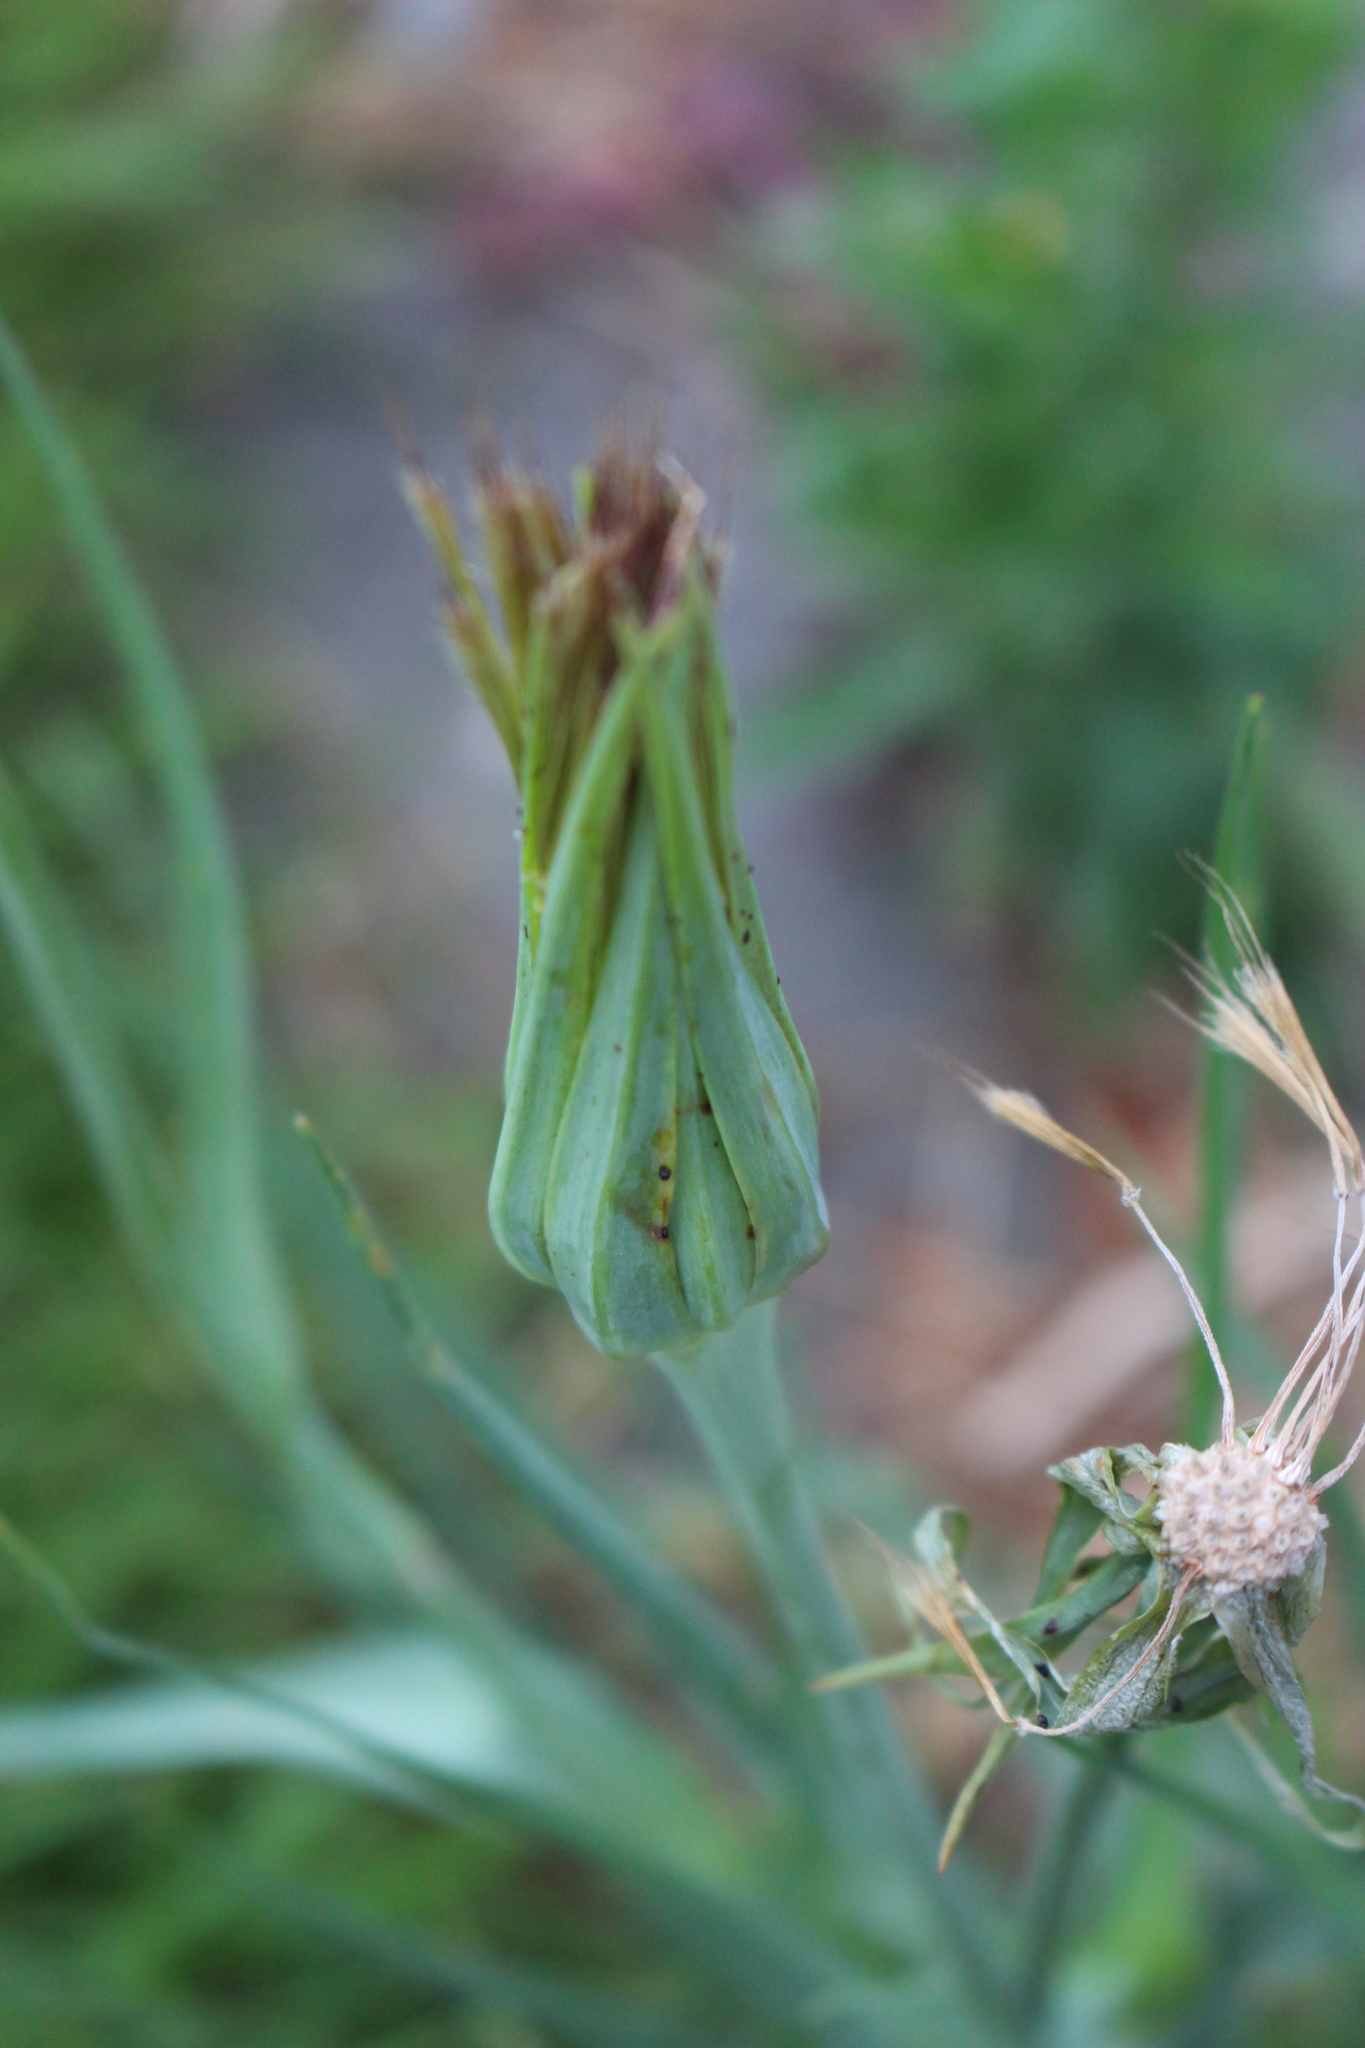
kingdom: Plantae
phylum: Tracheophyta
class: Magnoliopsida
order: Asterales
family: Asteraceae
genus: Tragopogon
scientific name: Tragopogon porrifolius
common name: Salsify
